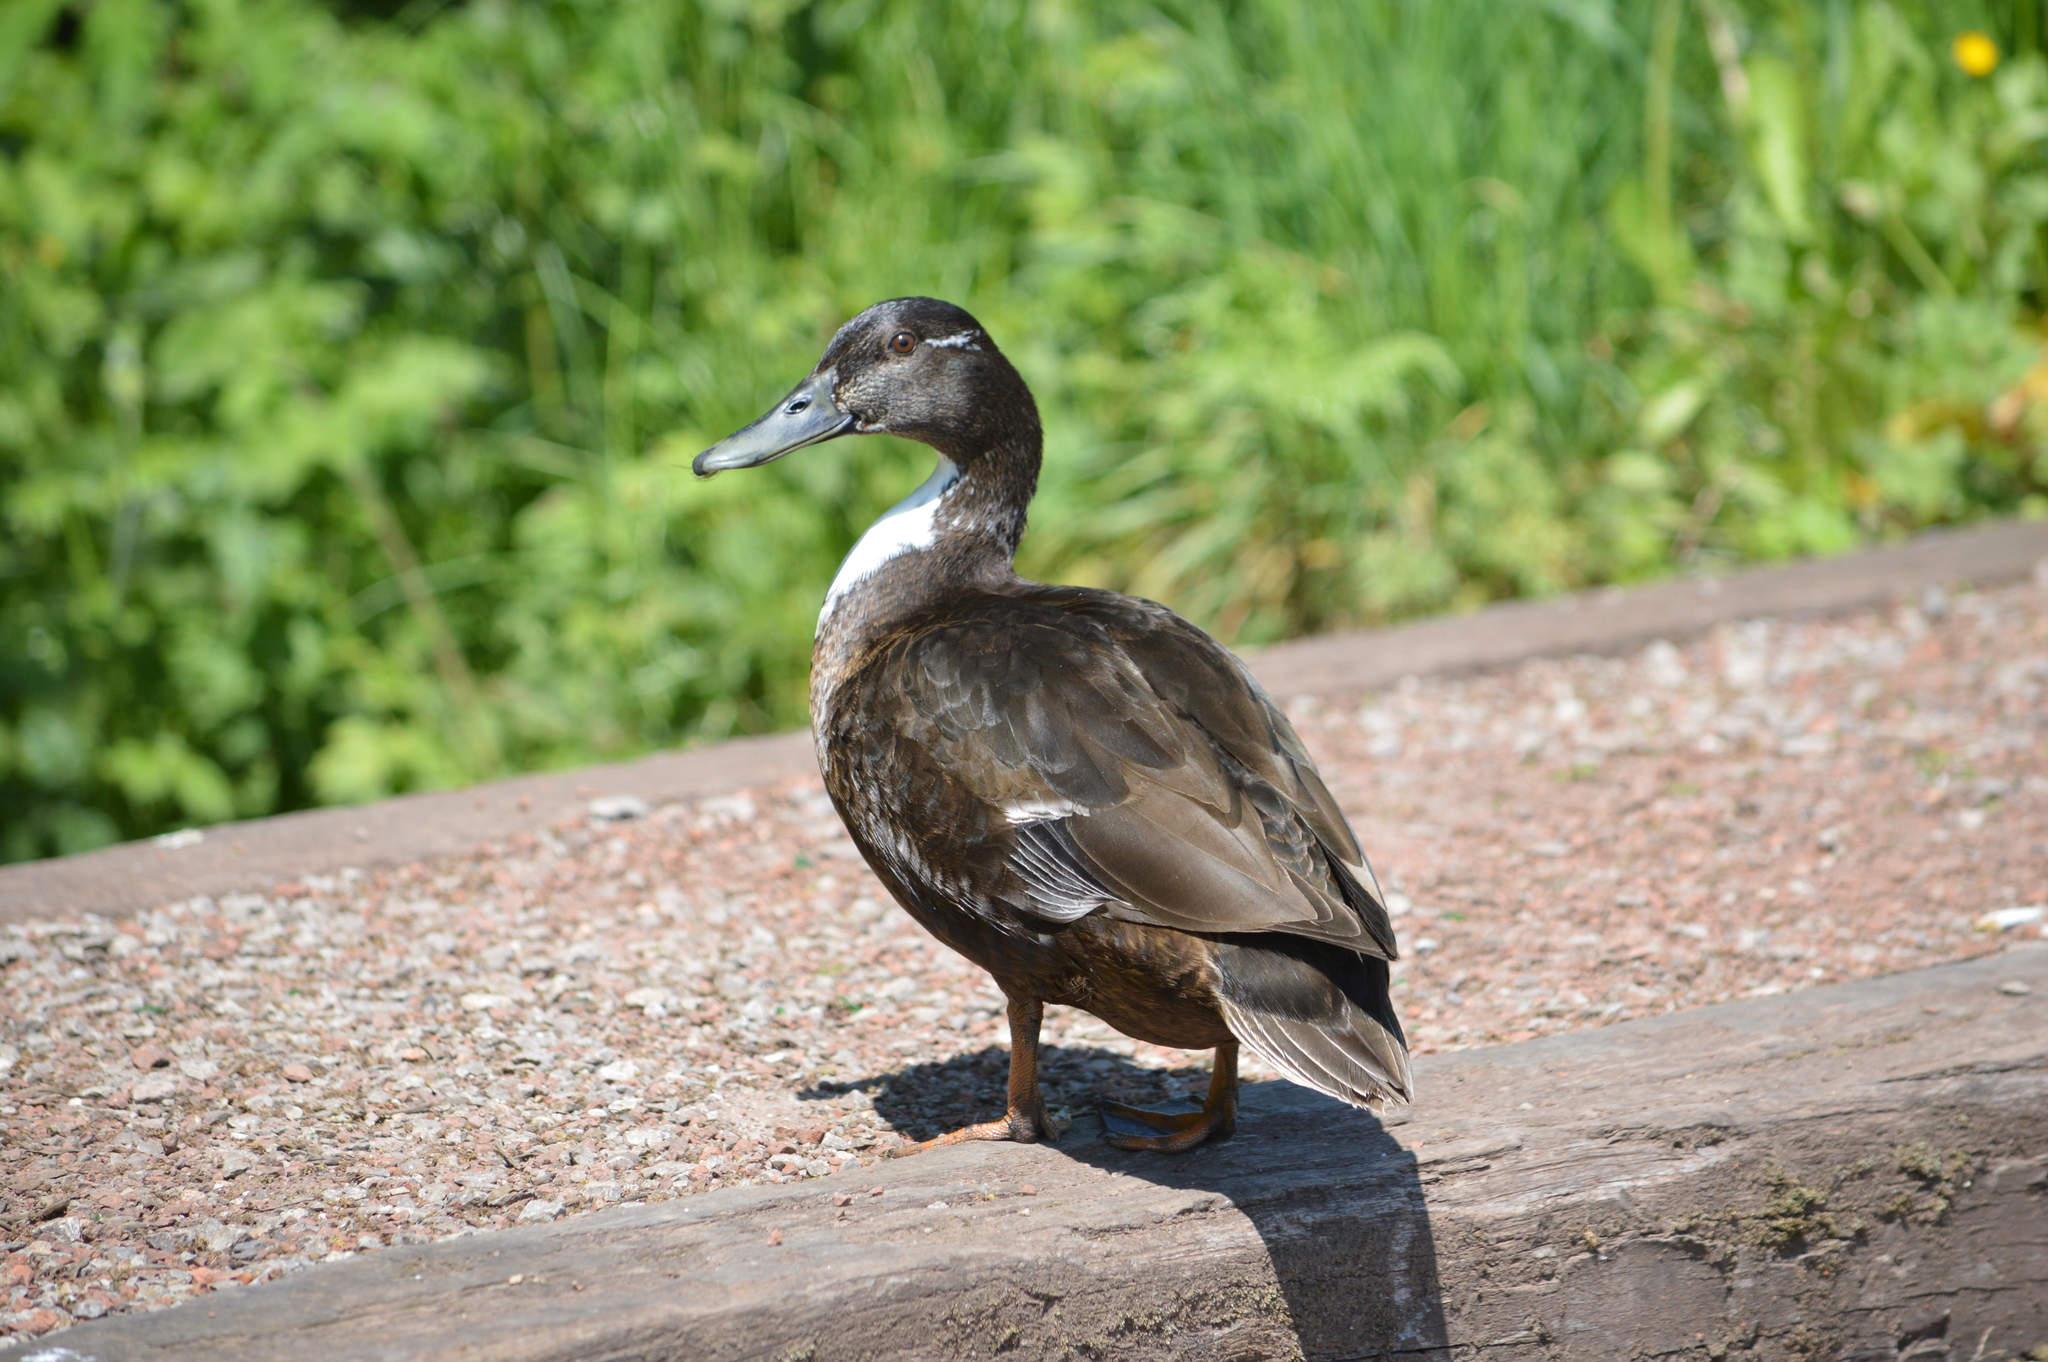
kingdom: Animalia
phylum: Chordata
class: Aves
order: Anseriformes
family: Anatidae
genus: Anas
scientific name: Anas platyrhynchos
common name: Mallard
